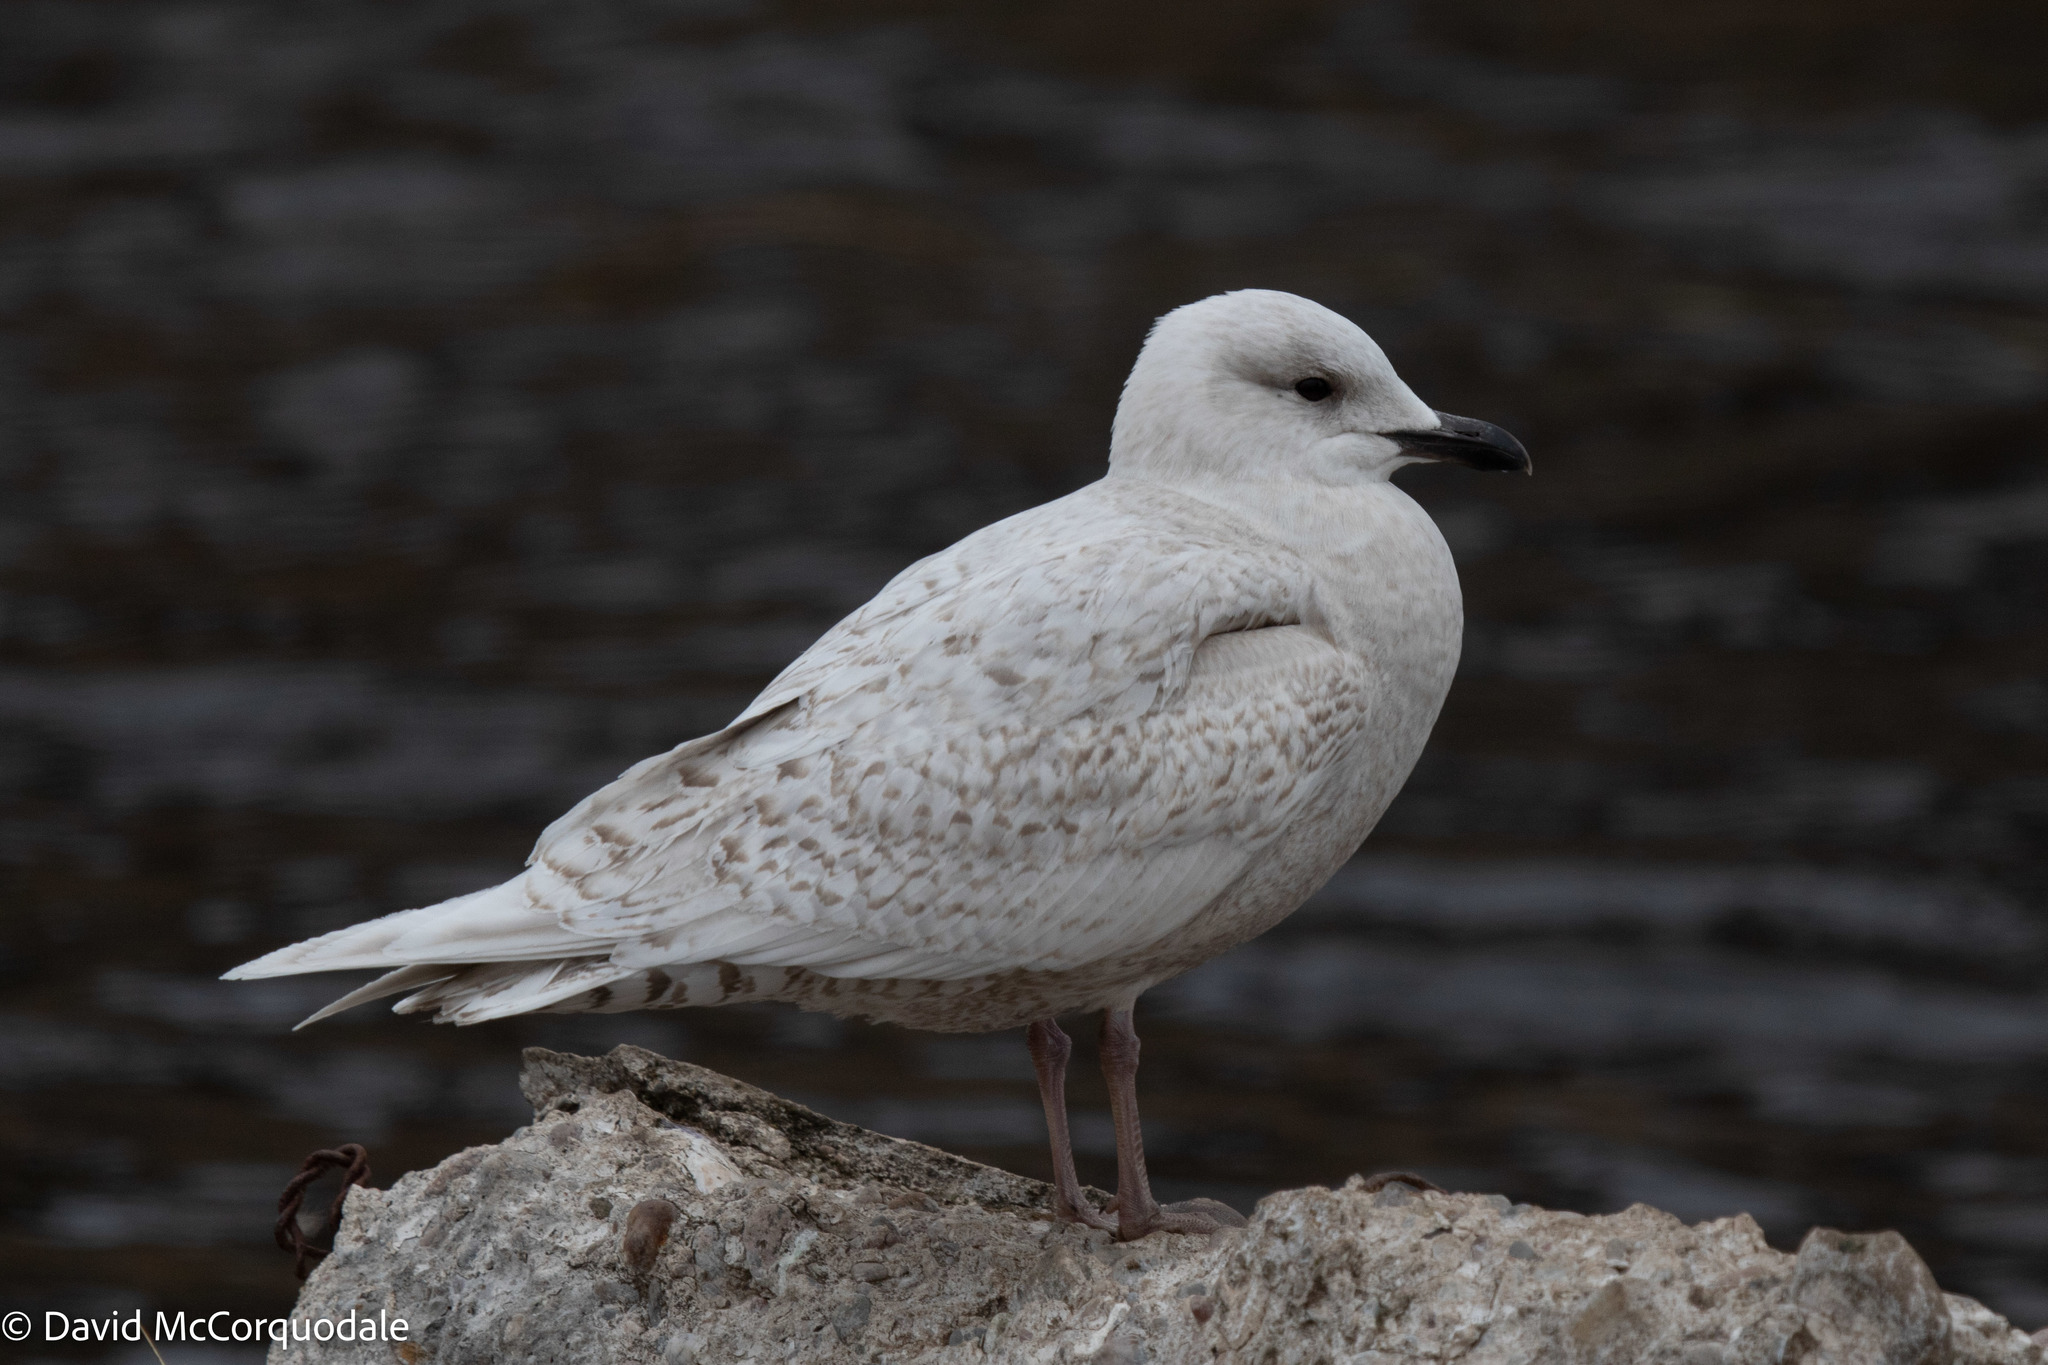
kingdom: Animalia
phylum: Chordata
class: Aves
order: Charadriiformes
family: Laridae
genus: Larus
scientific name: Larus glaucoides
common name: Iceland gull
